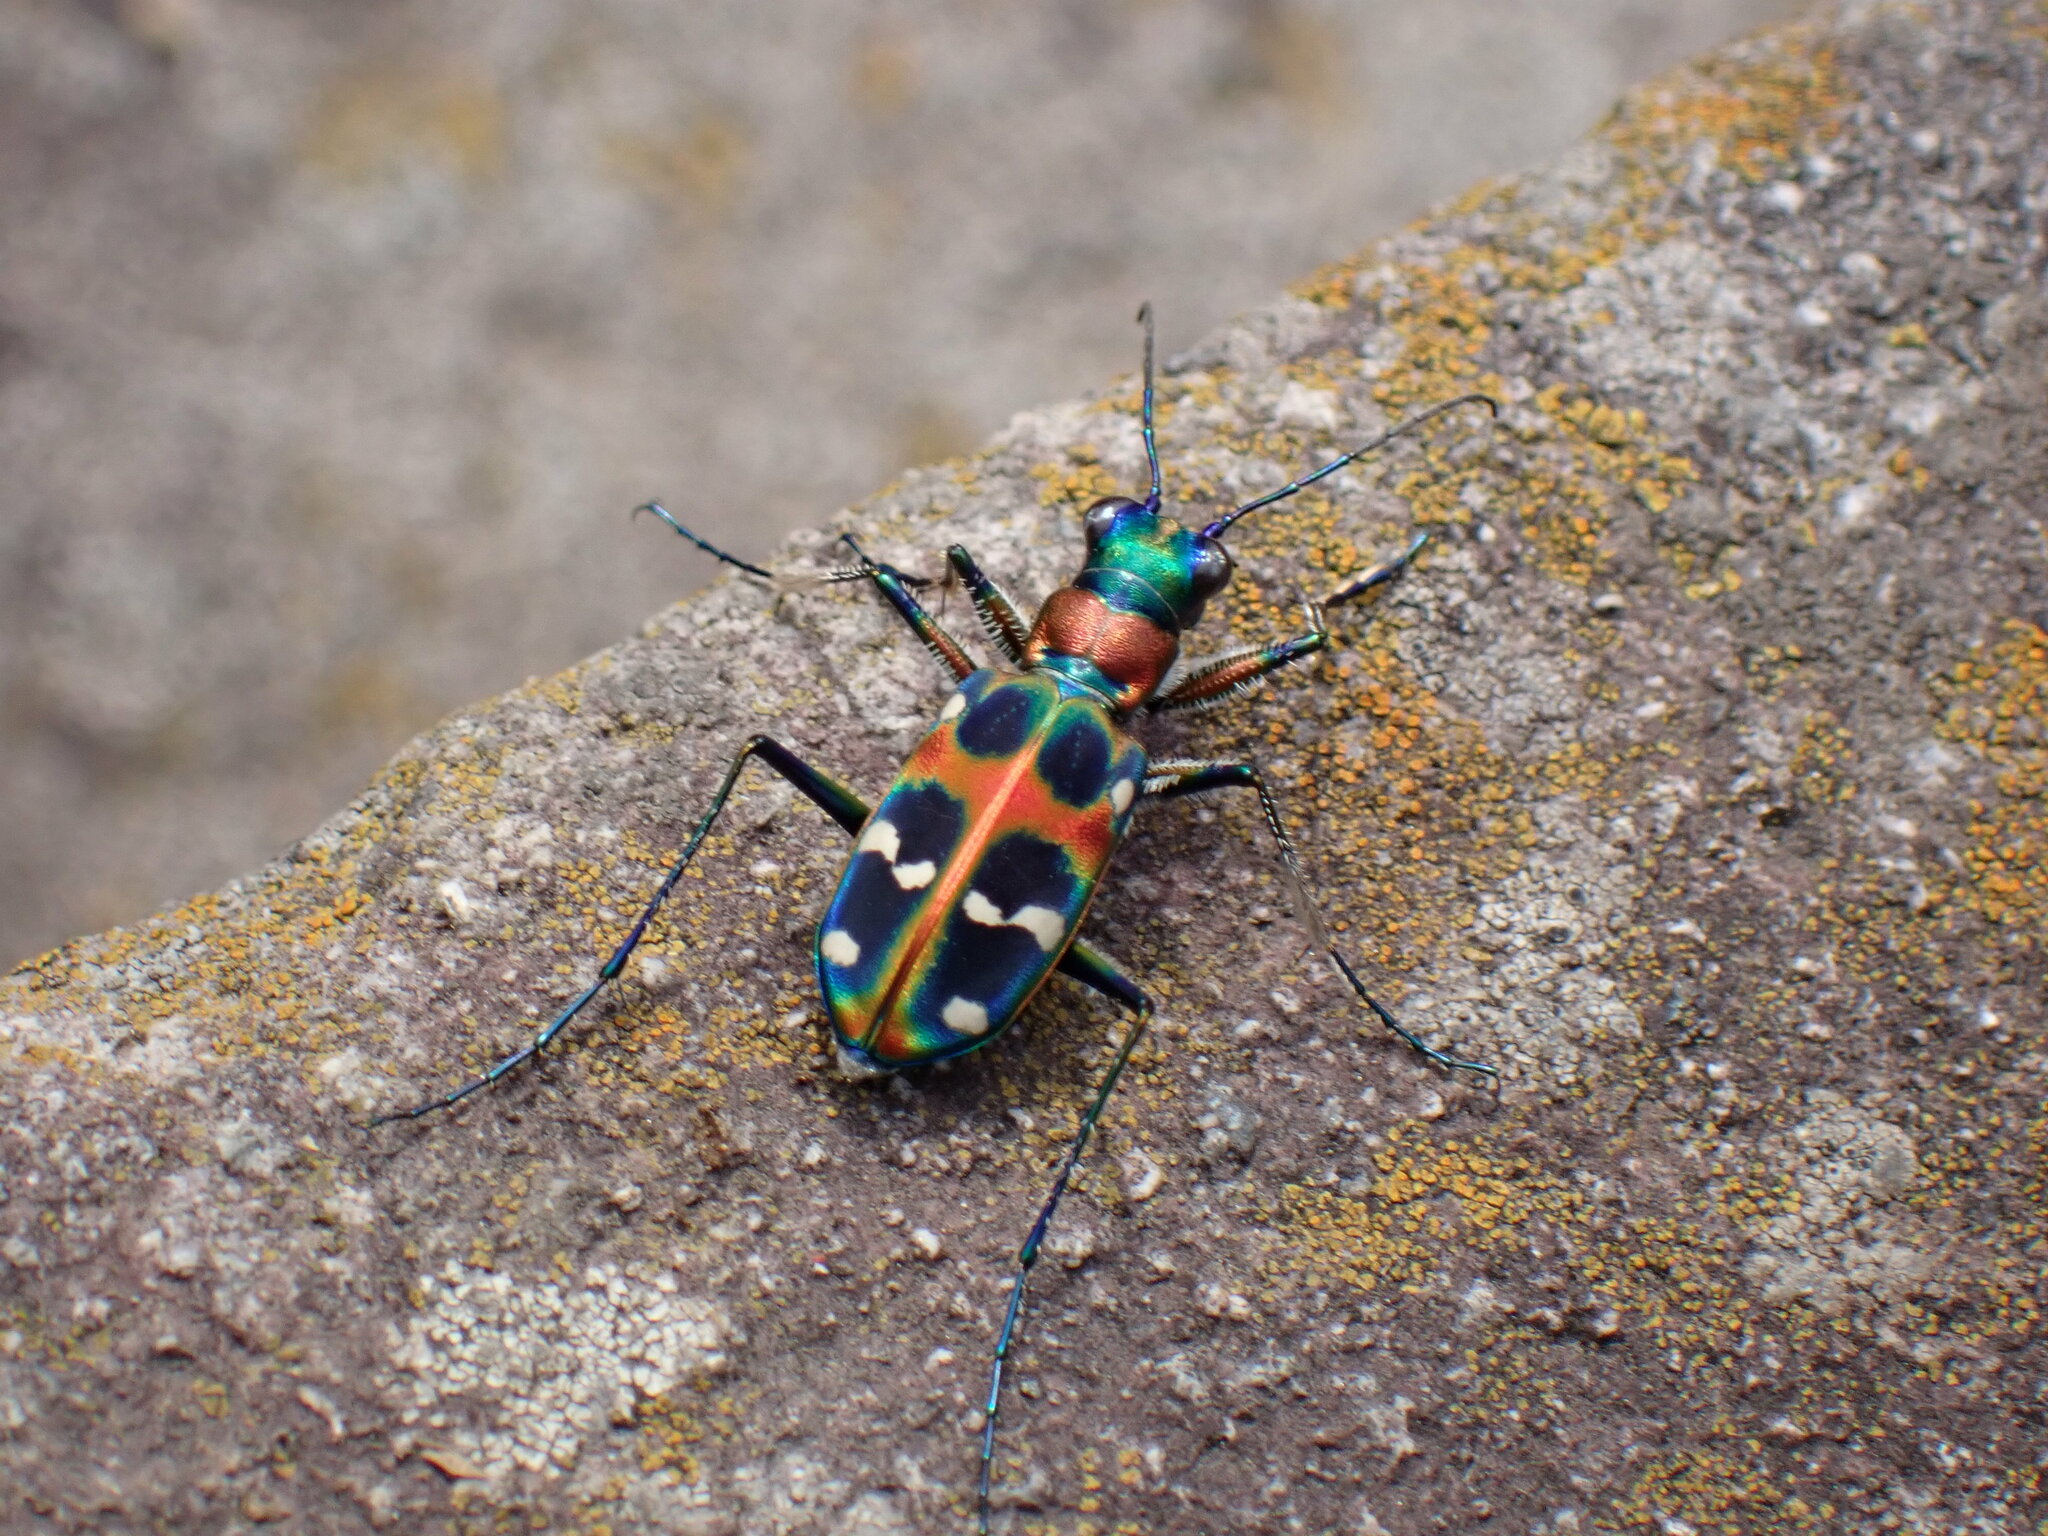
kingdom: Animalia
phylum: Arthropoda
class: Insecta
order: Coleoptera
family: Carabidae
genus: Cicindela
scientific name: Cicindela chinensis
